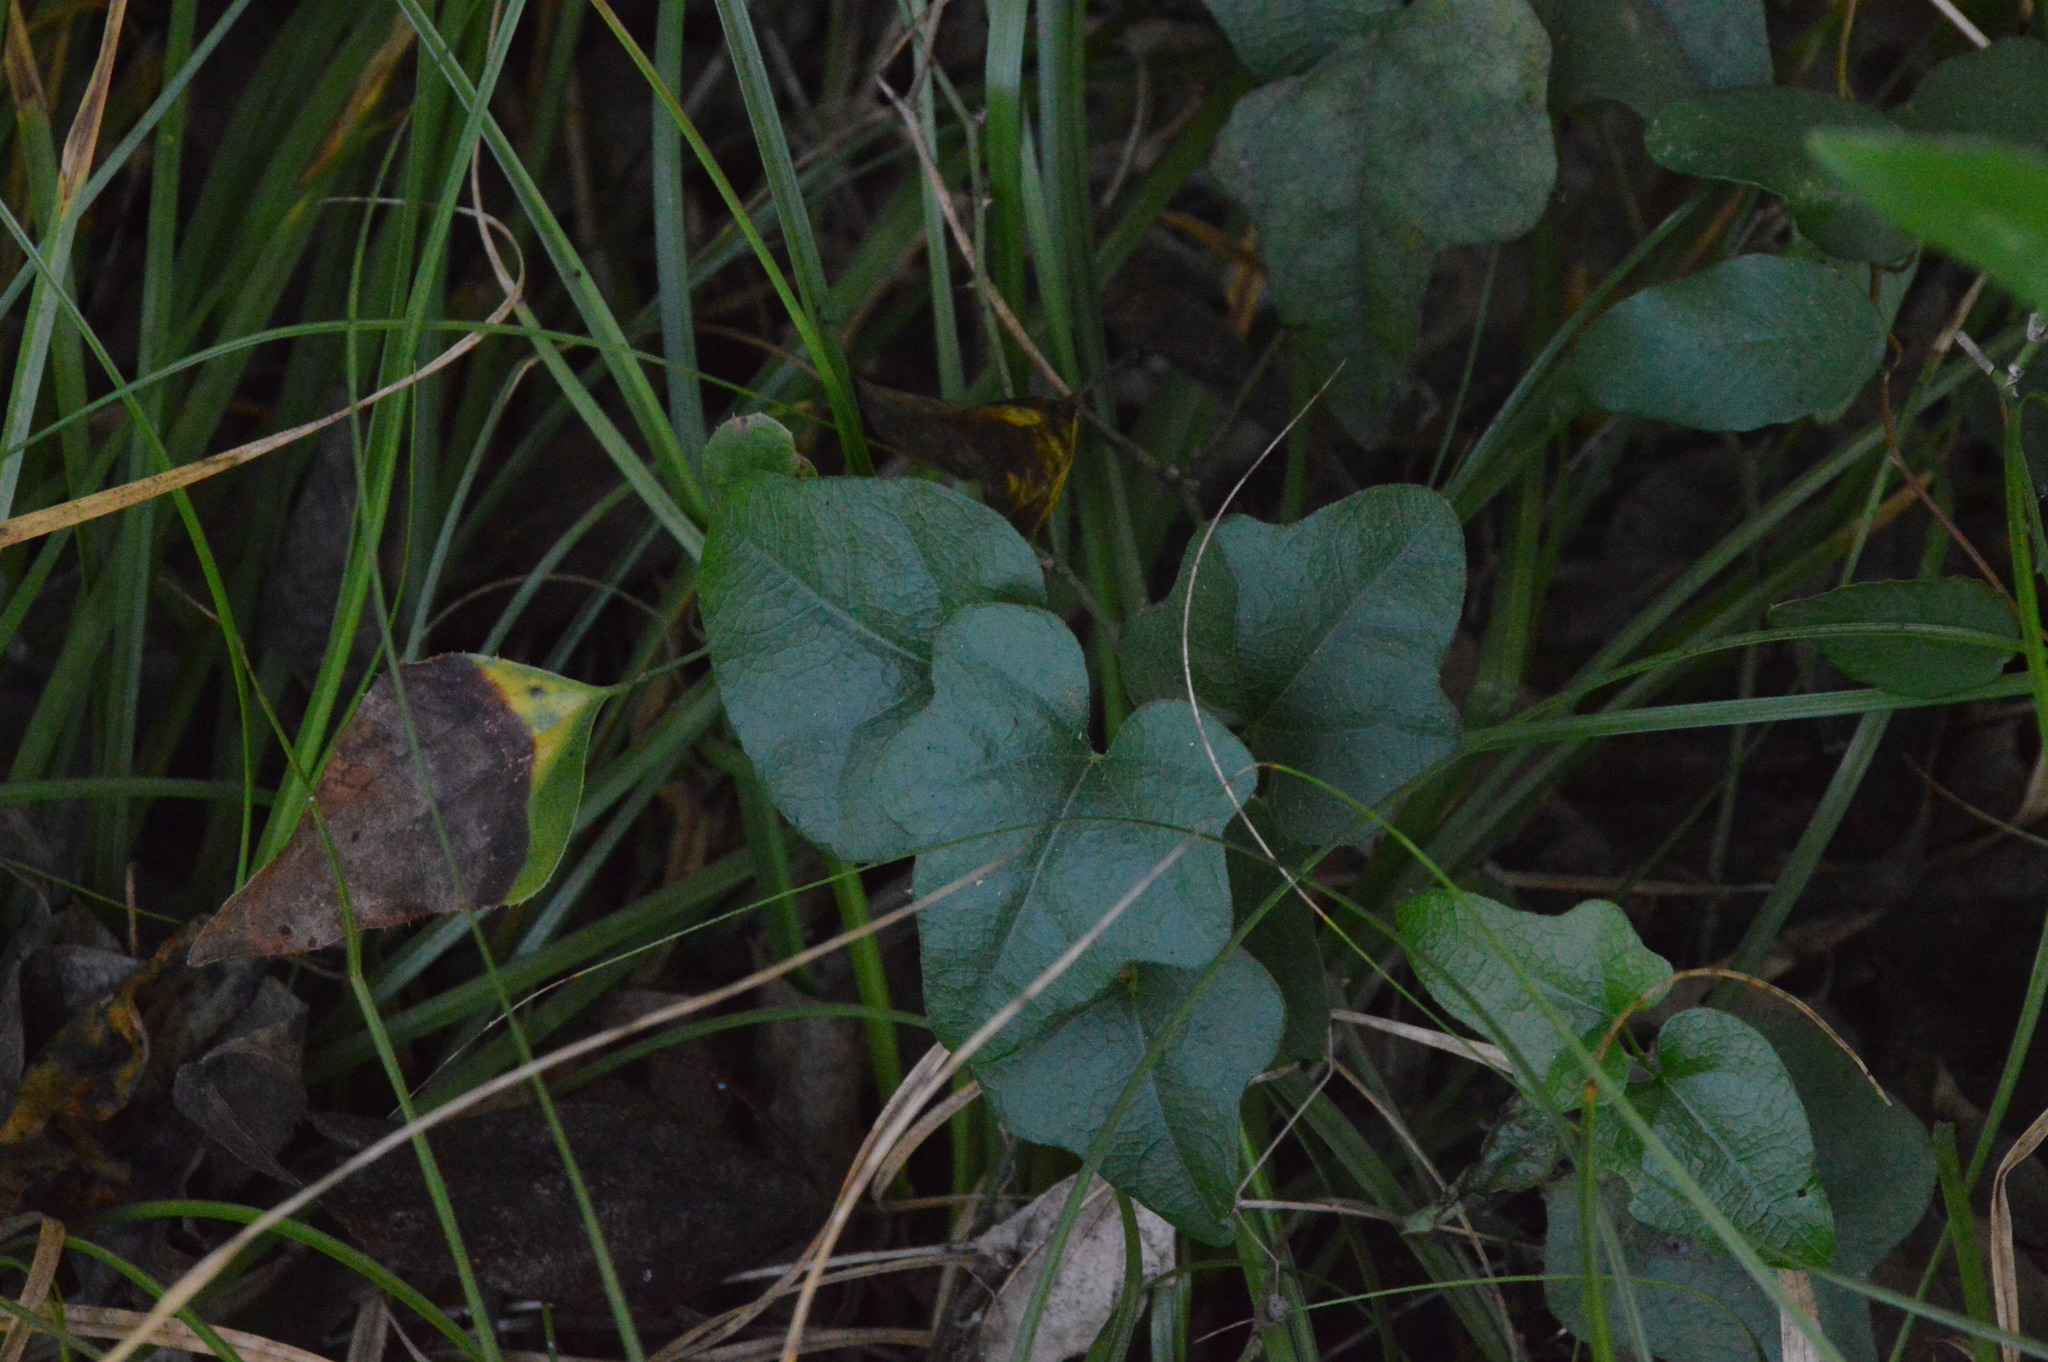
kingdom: Plantae
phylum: Tracheophyta
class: Magnoliopsida
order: Ranunculales
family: Menispermaceae
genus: Cocculus
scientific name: Cocculus carolinus
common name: Carolina moonseed
